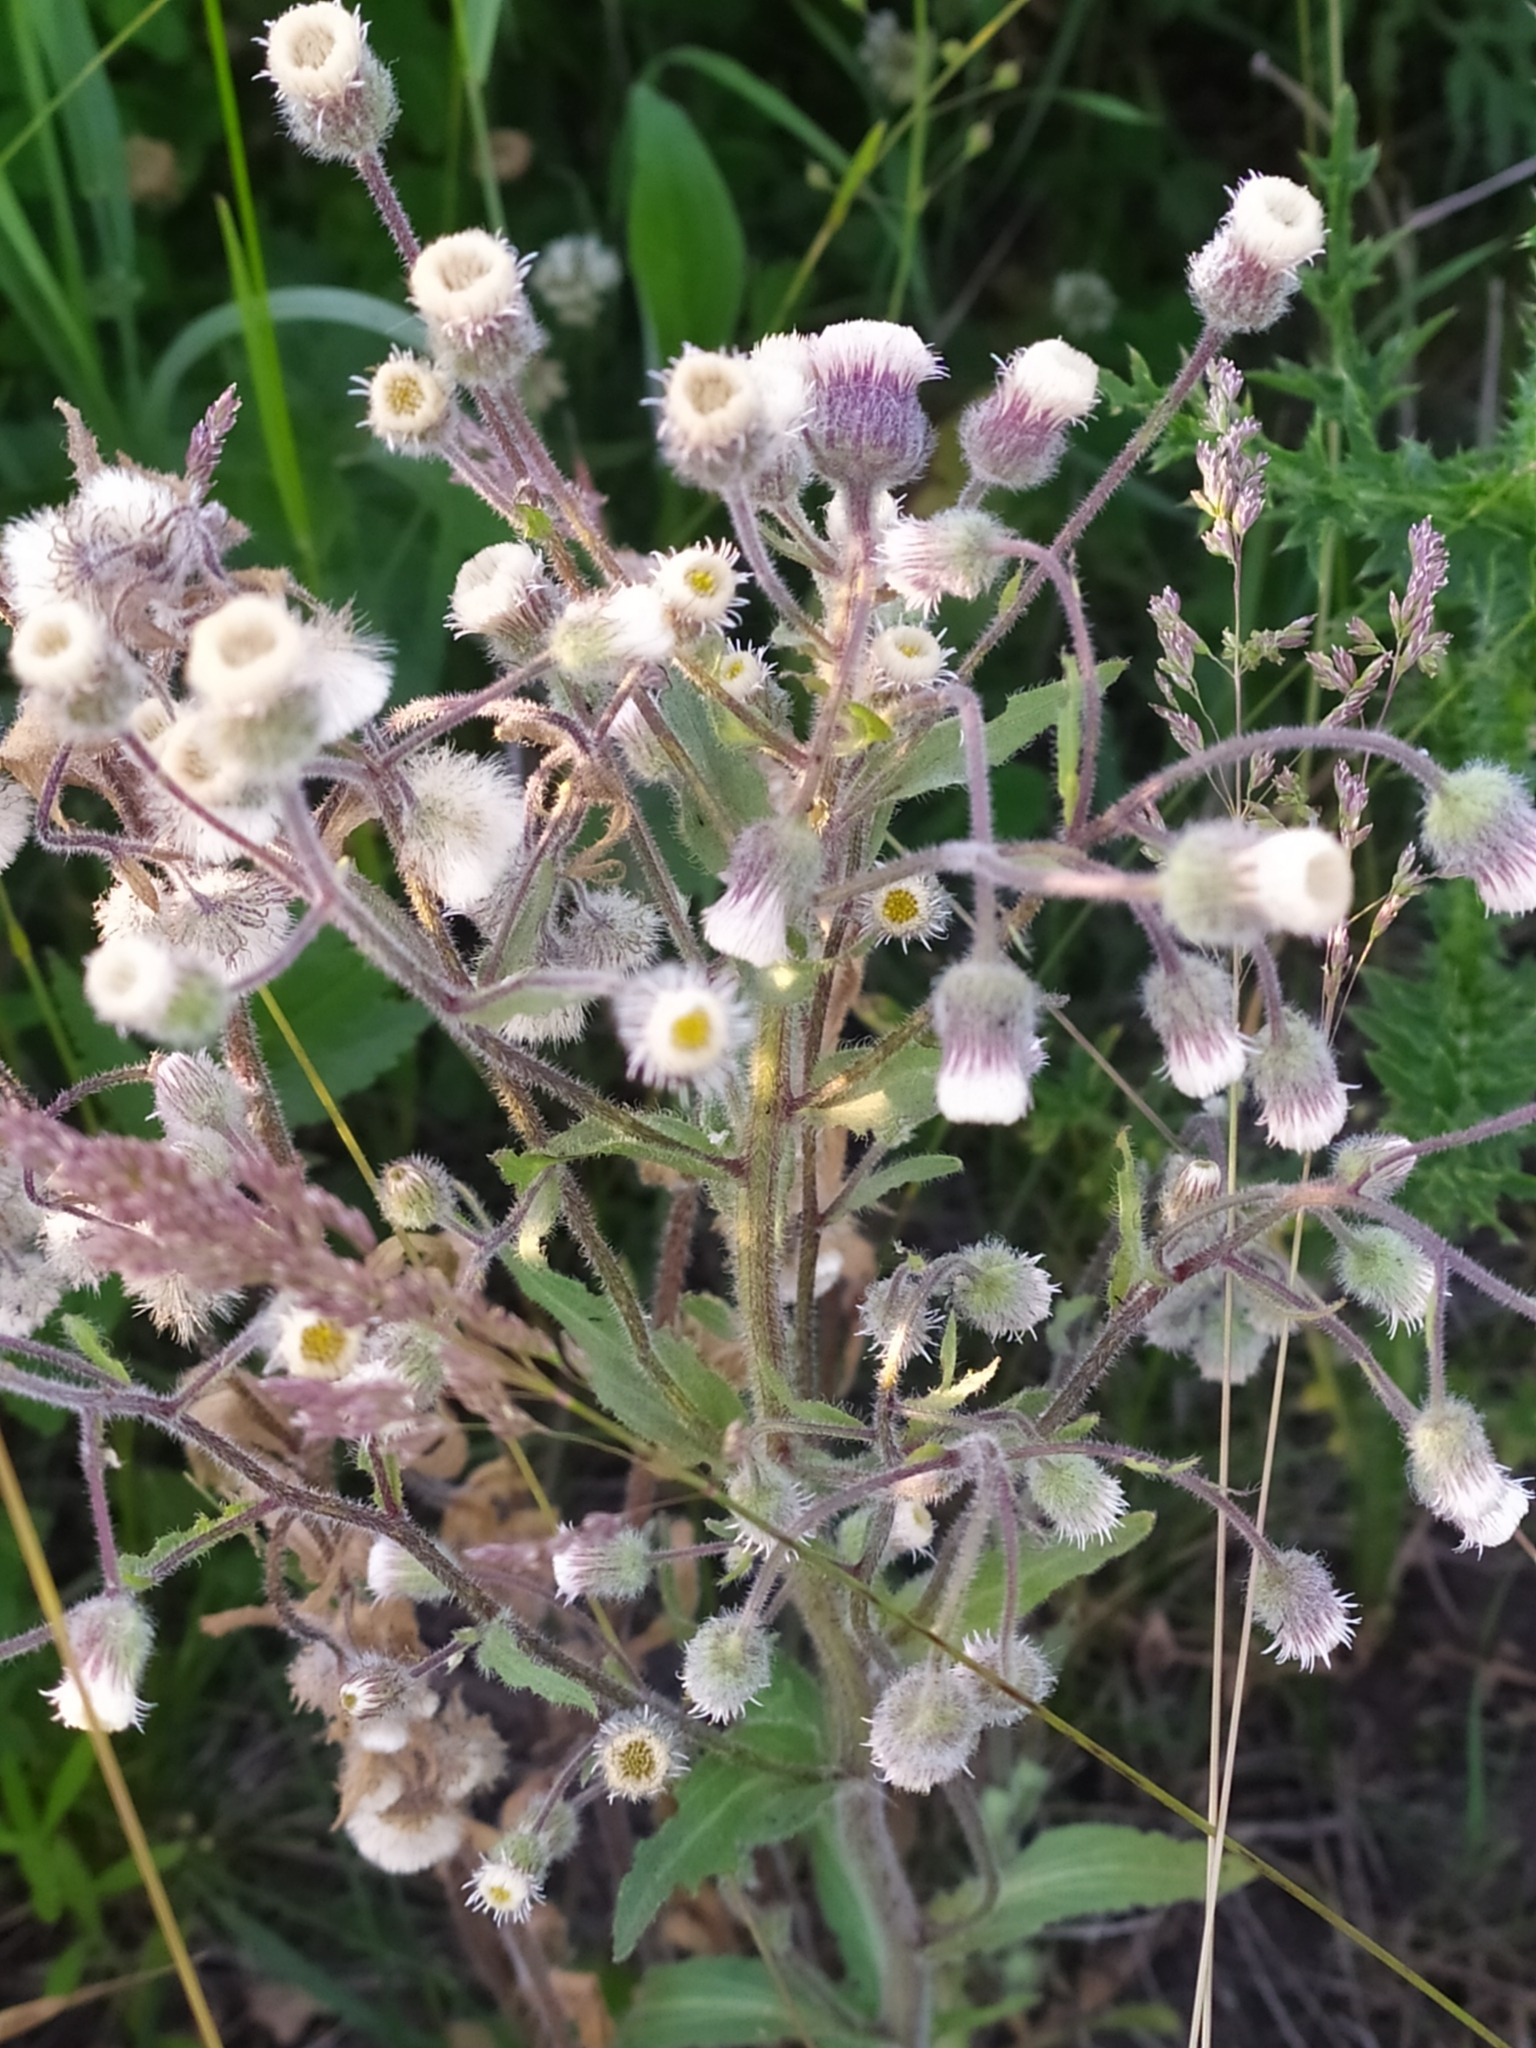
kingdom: Plantae
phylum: Tracheophyta
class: Magnoliopsida
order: Asterales
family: Asteraceae
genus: Erigeron
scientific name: Erigeron acris
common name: Blue fleabane
